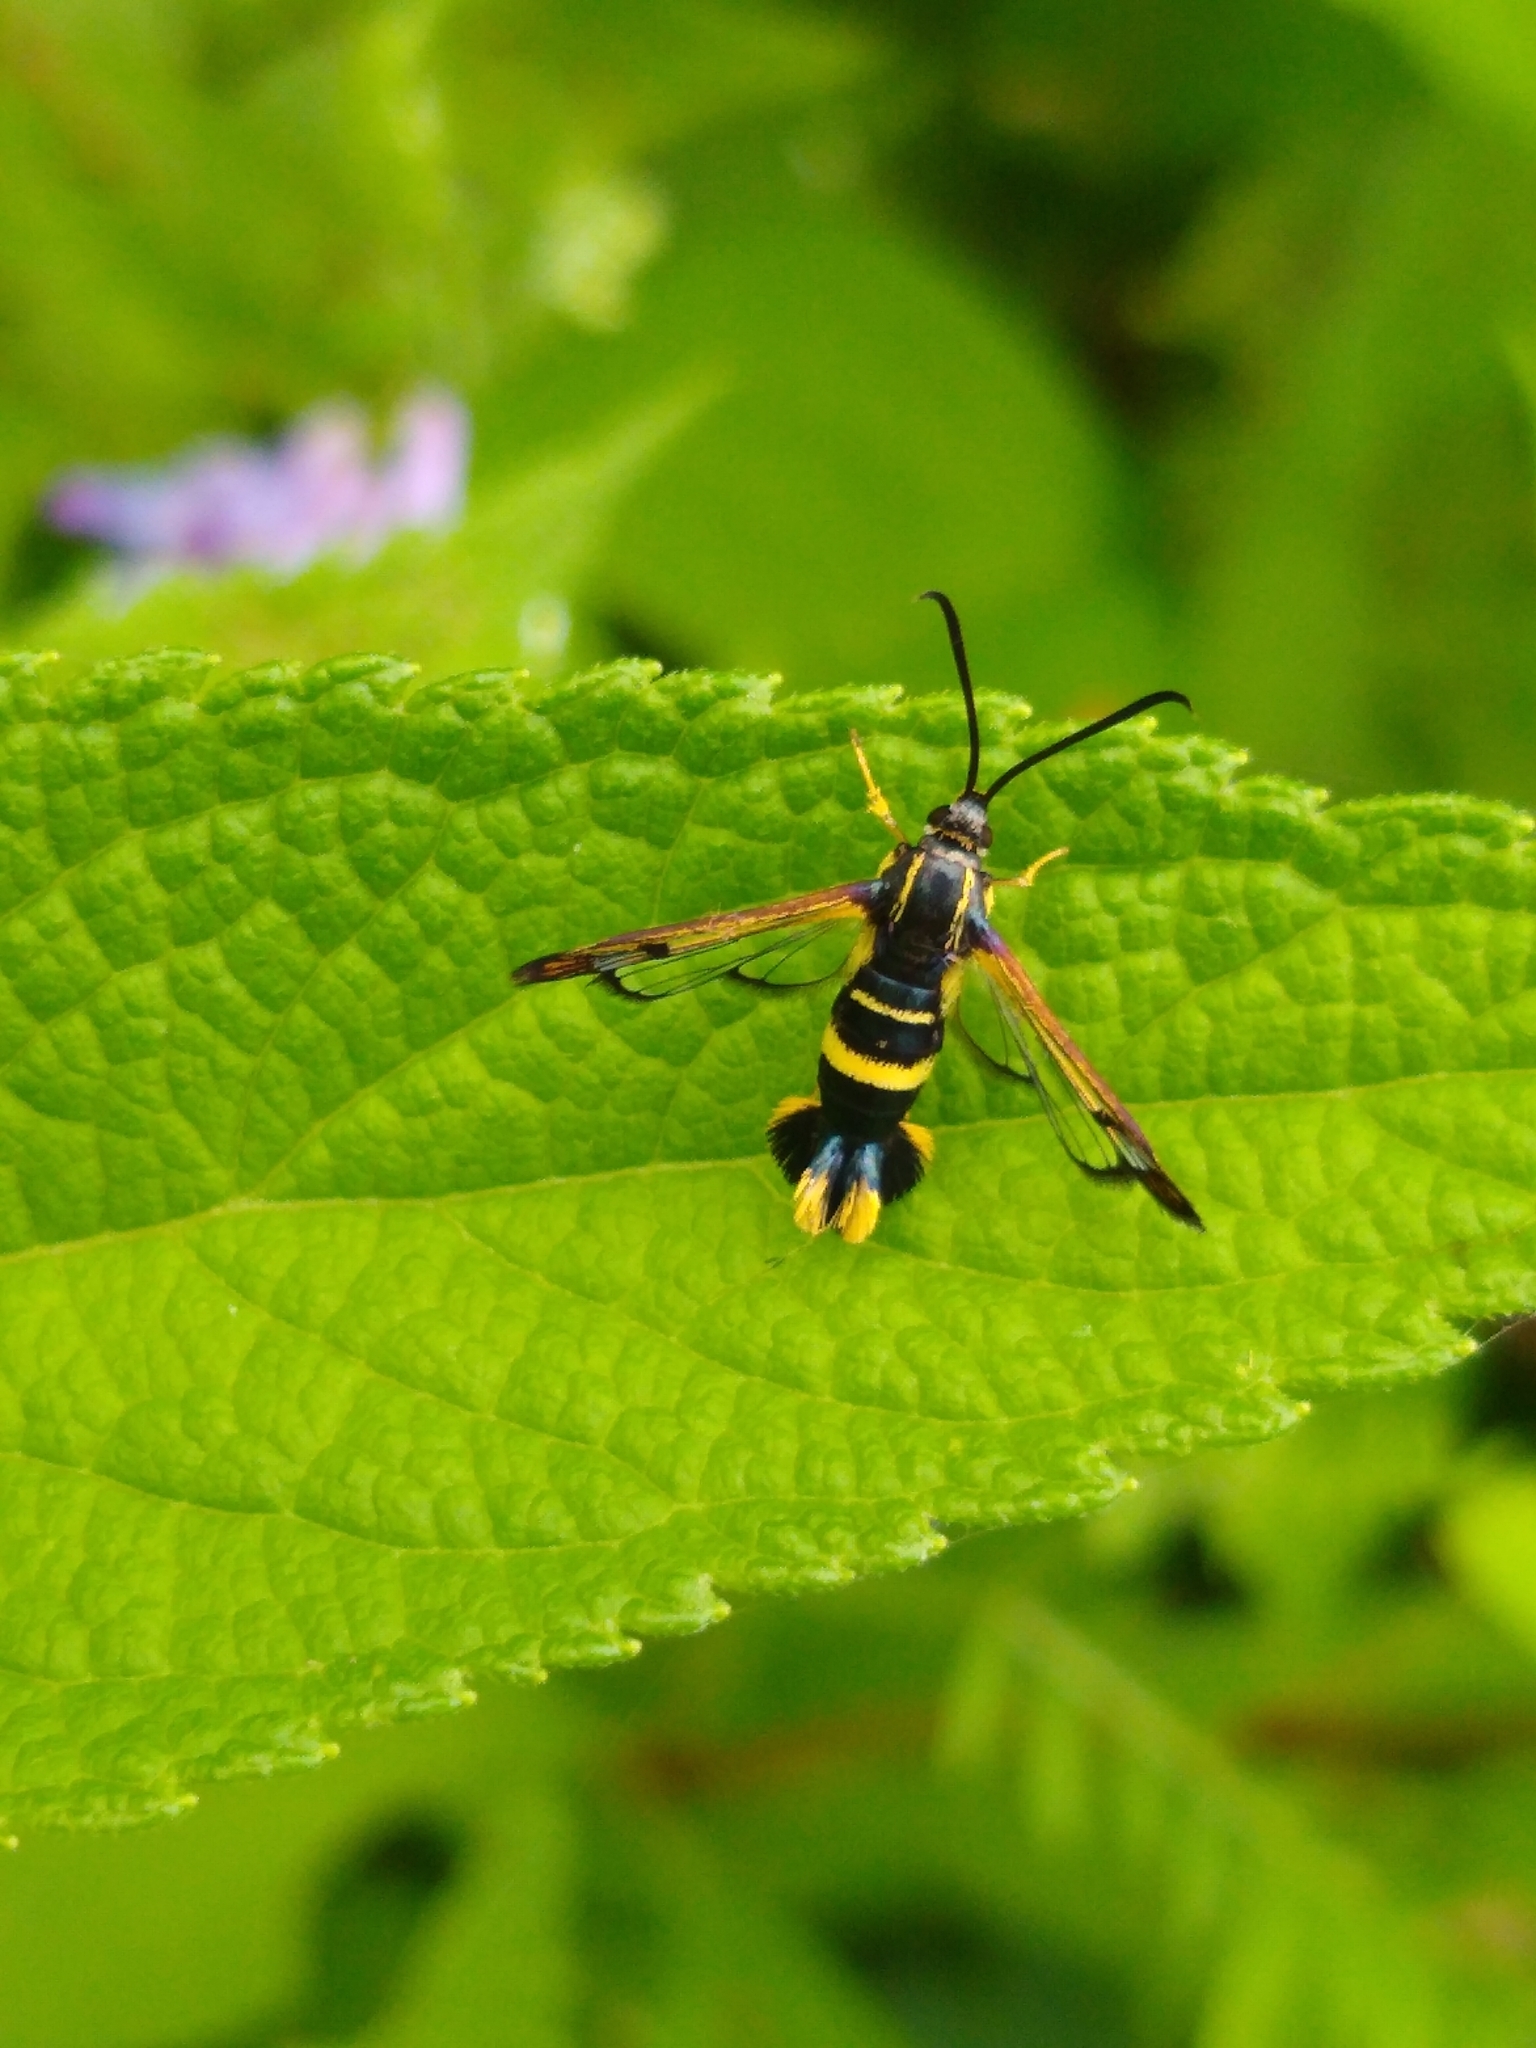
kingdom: Animalia
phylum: Arthropoda
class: Insecta
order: Lepidoptera
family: Sesiidae
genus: Synanthedon
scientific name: Synanthedon scitula
